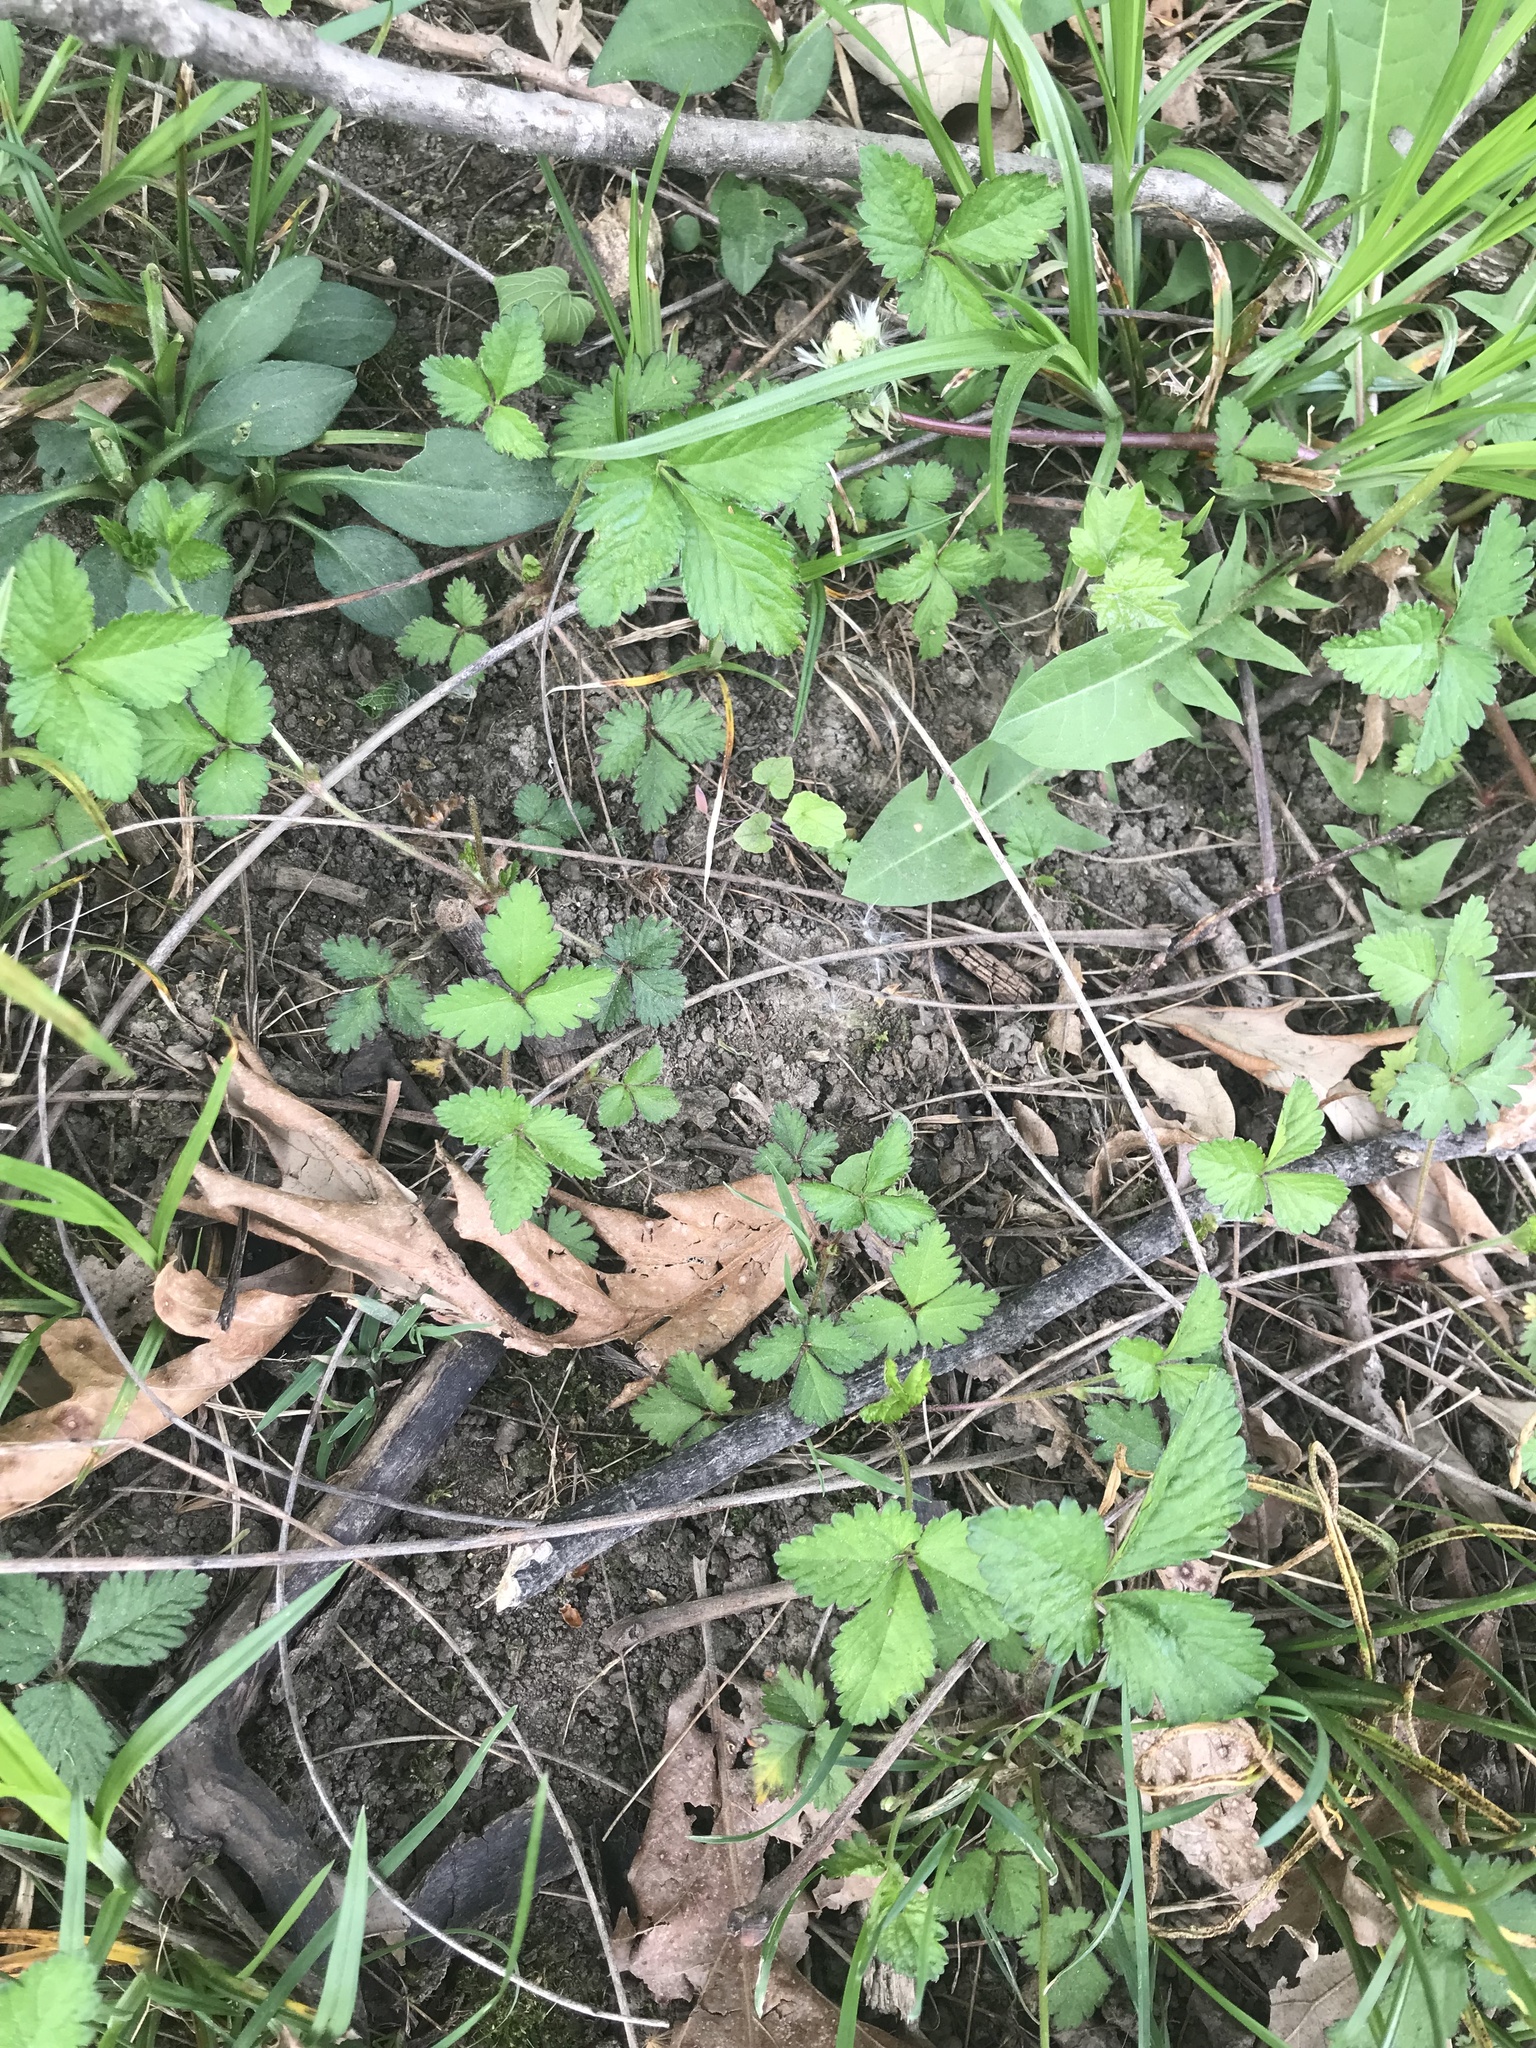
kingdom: Plantae
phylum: Tracheophyta
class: Magnoliopsida
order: Rosales
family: Rosaceae
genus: Potentilla
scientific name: Potentilla indica
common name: Yellow-flowered strawberry
